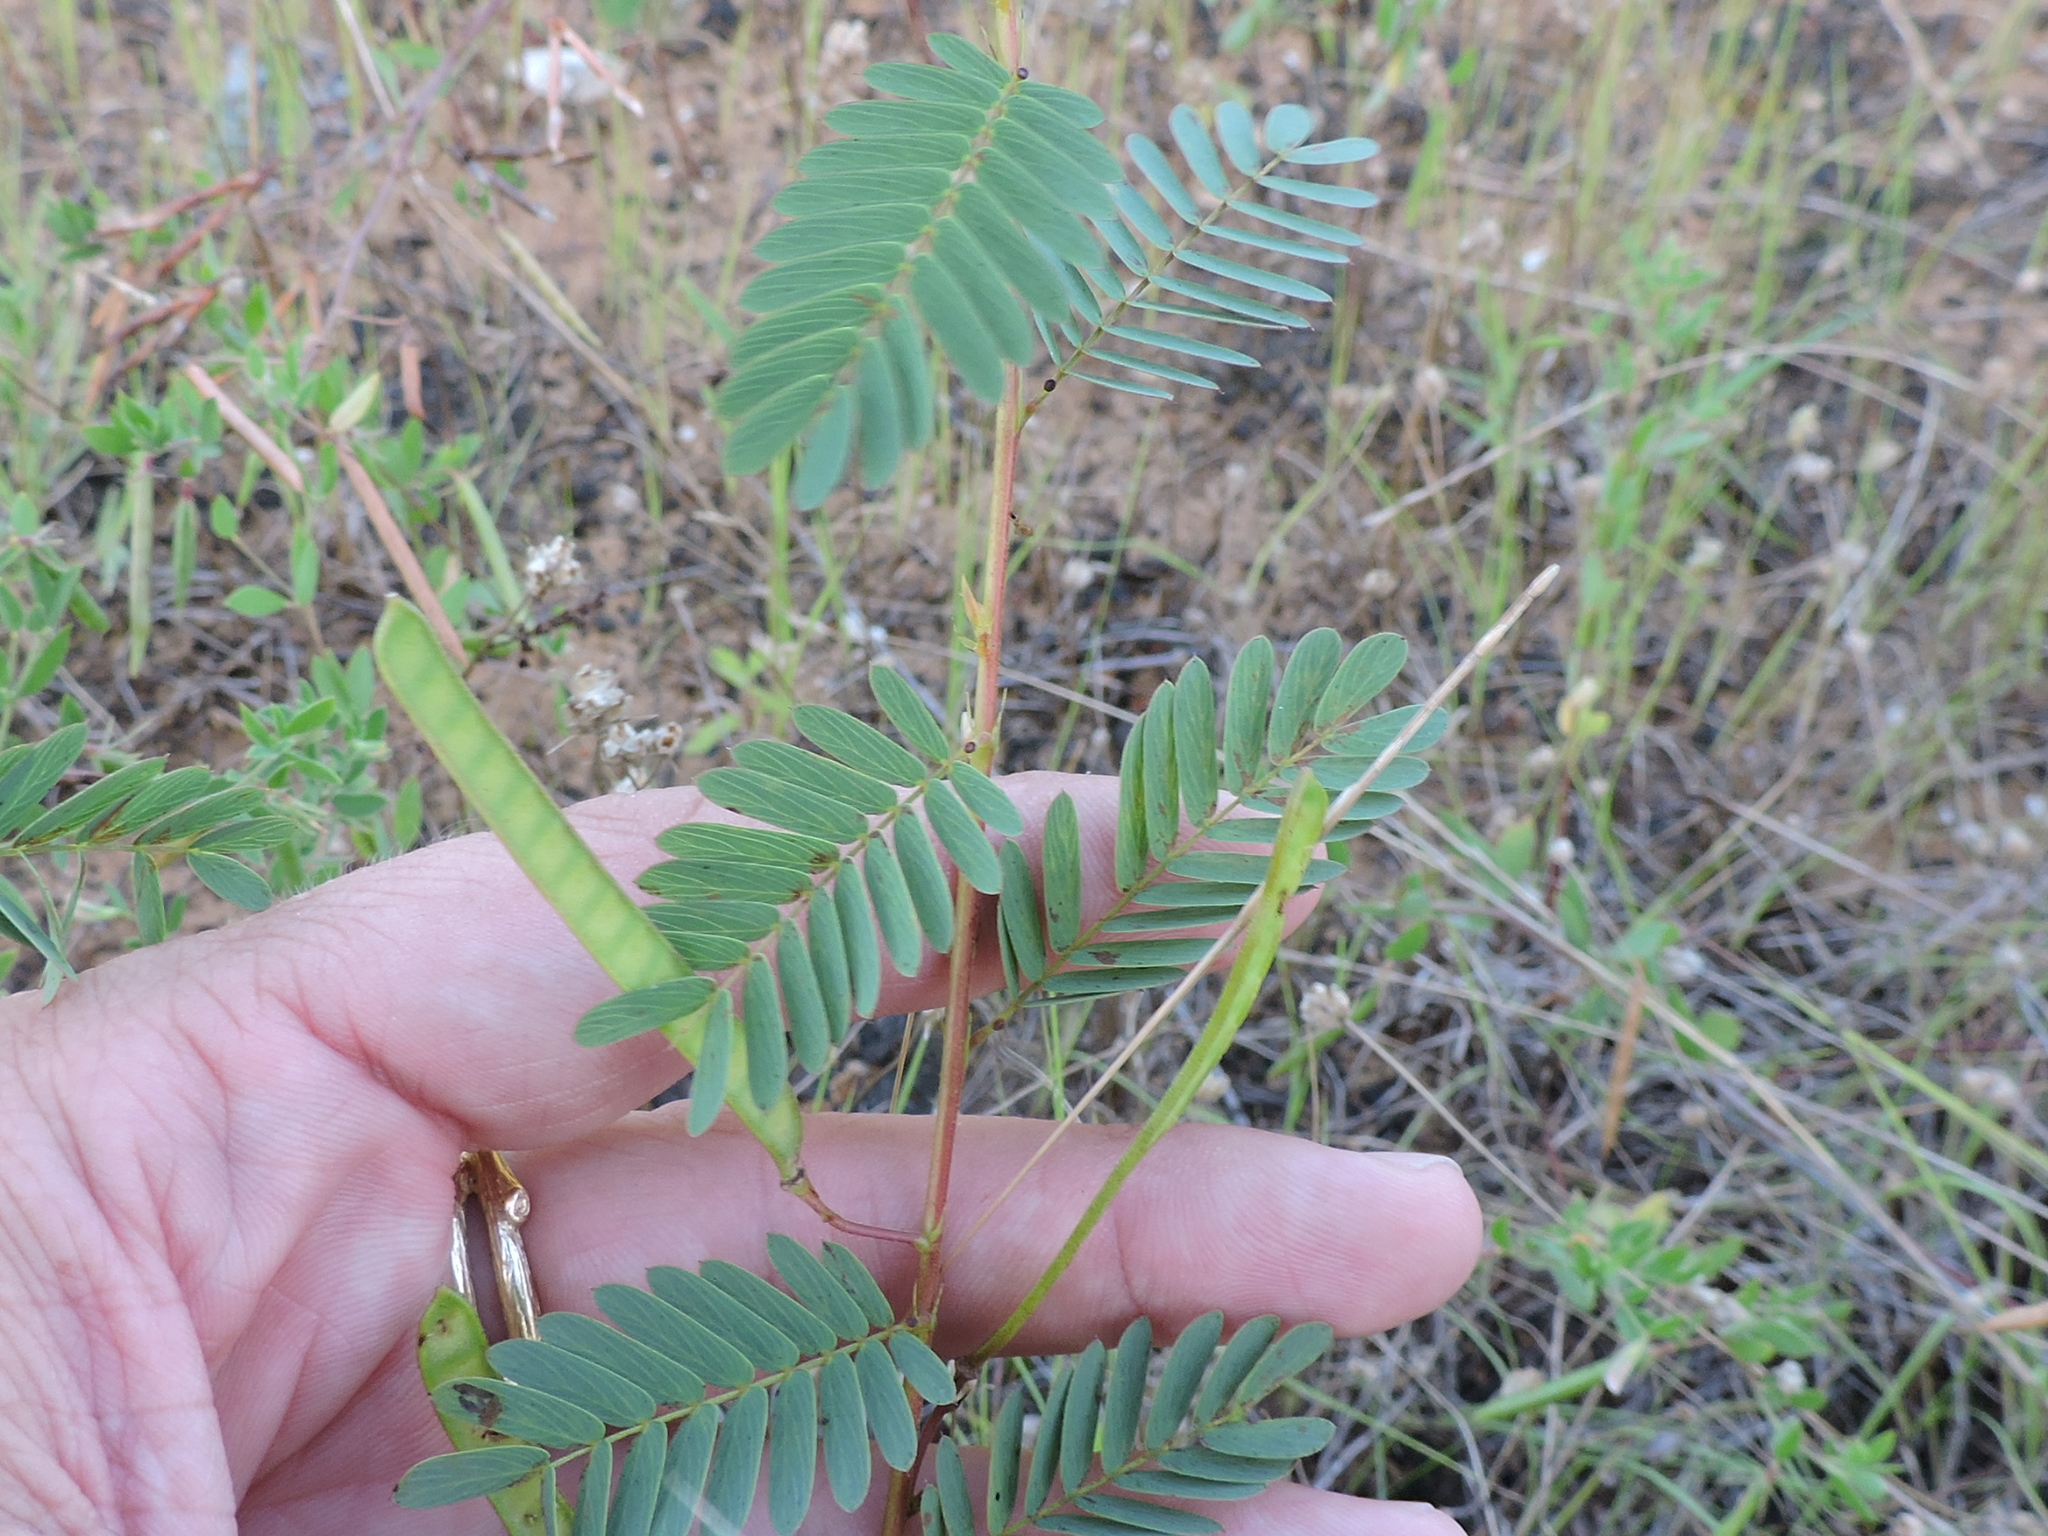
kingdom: Plantae
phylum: Tracheophyta
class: Magnoliopsida
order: Fabales
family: Fabaceae
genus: Chamaecrista
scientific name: Chamaecrista fasciculata
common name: Golden cassia
